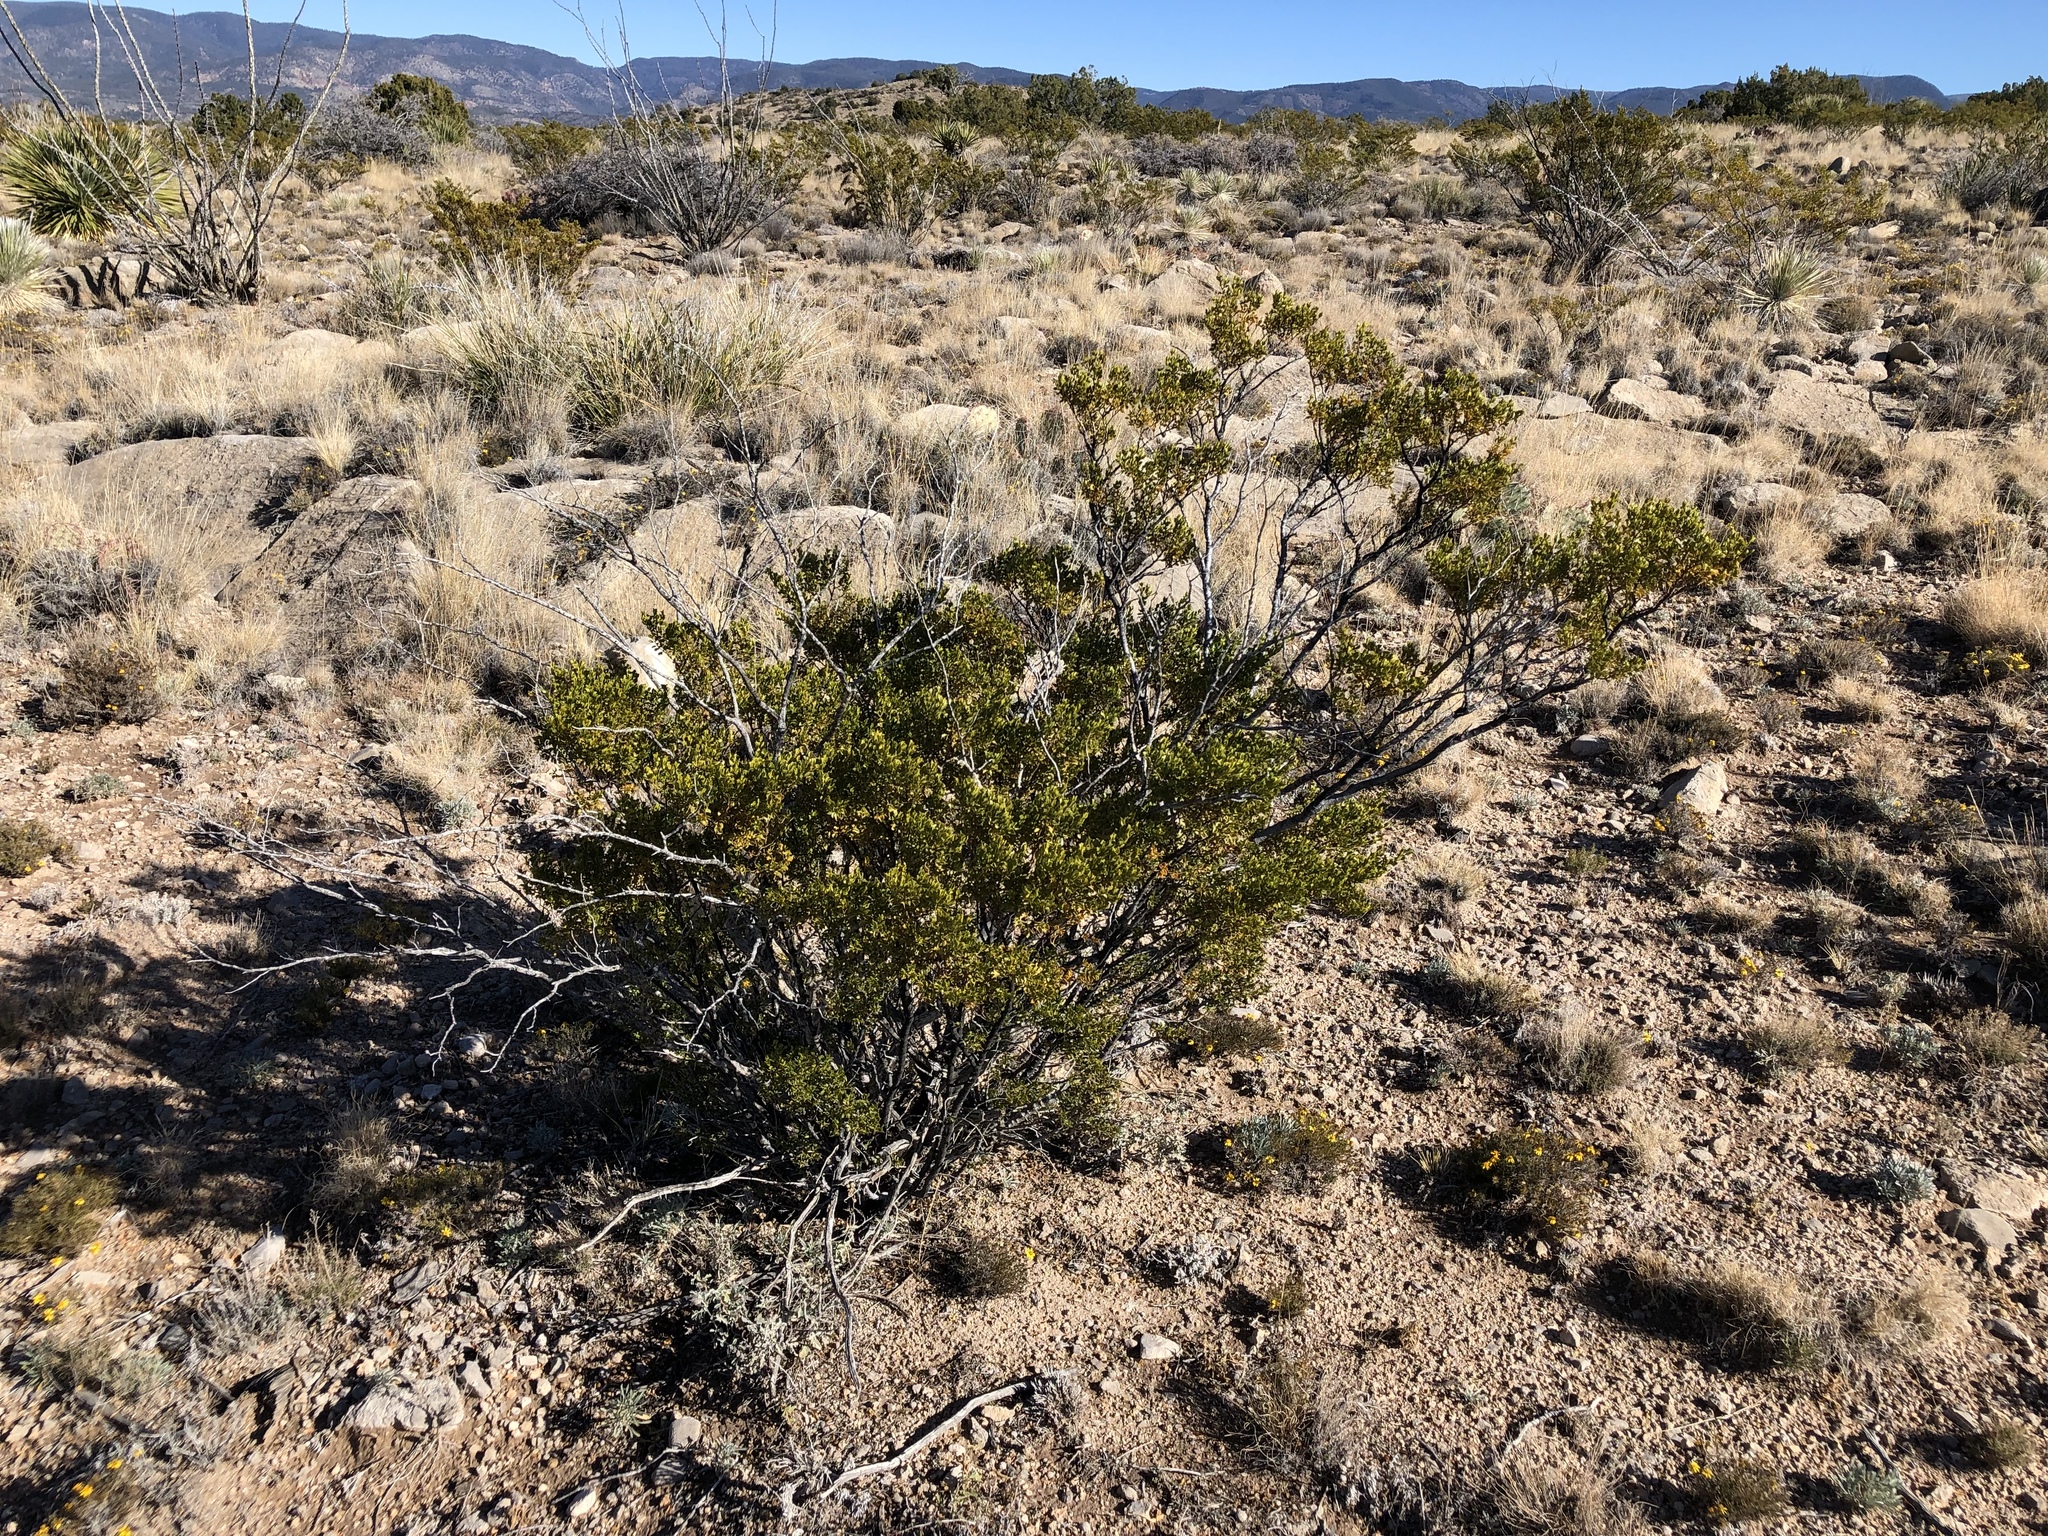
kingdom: Plantae
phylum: Tracheophyta
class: Magnoliopsida
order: Zygophyllales
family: Zygophyllaceae
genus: Larrea
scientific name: Larrea tridentata
